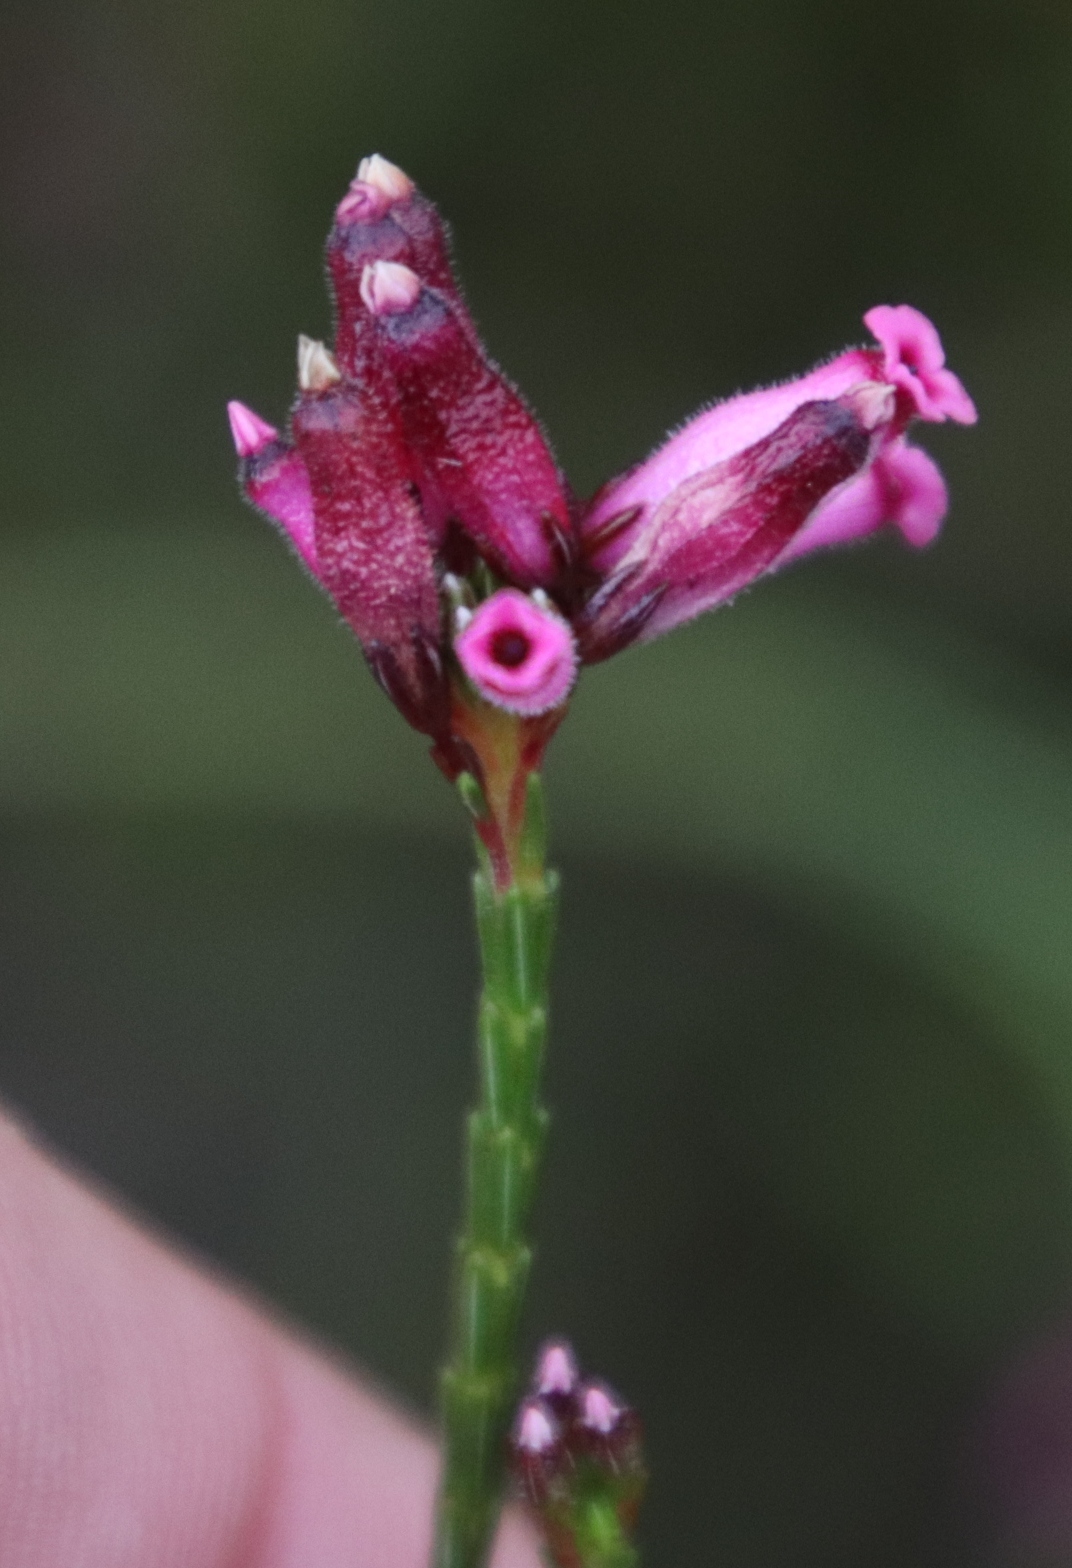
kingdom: Plantae
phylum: Tracheophyta
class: Magnoliopsida
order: Ericales
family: Ericaceae
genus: Erica
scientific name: Erica cristata
